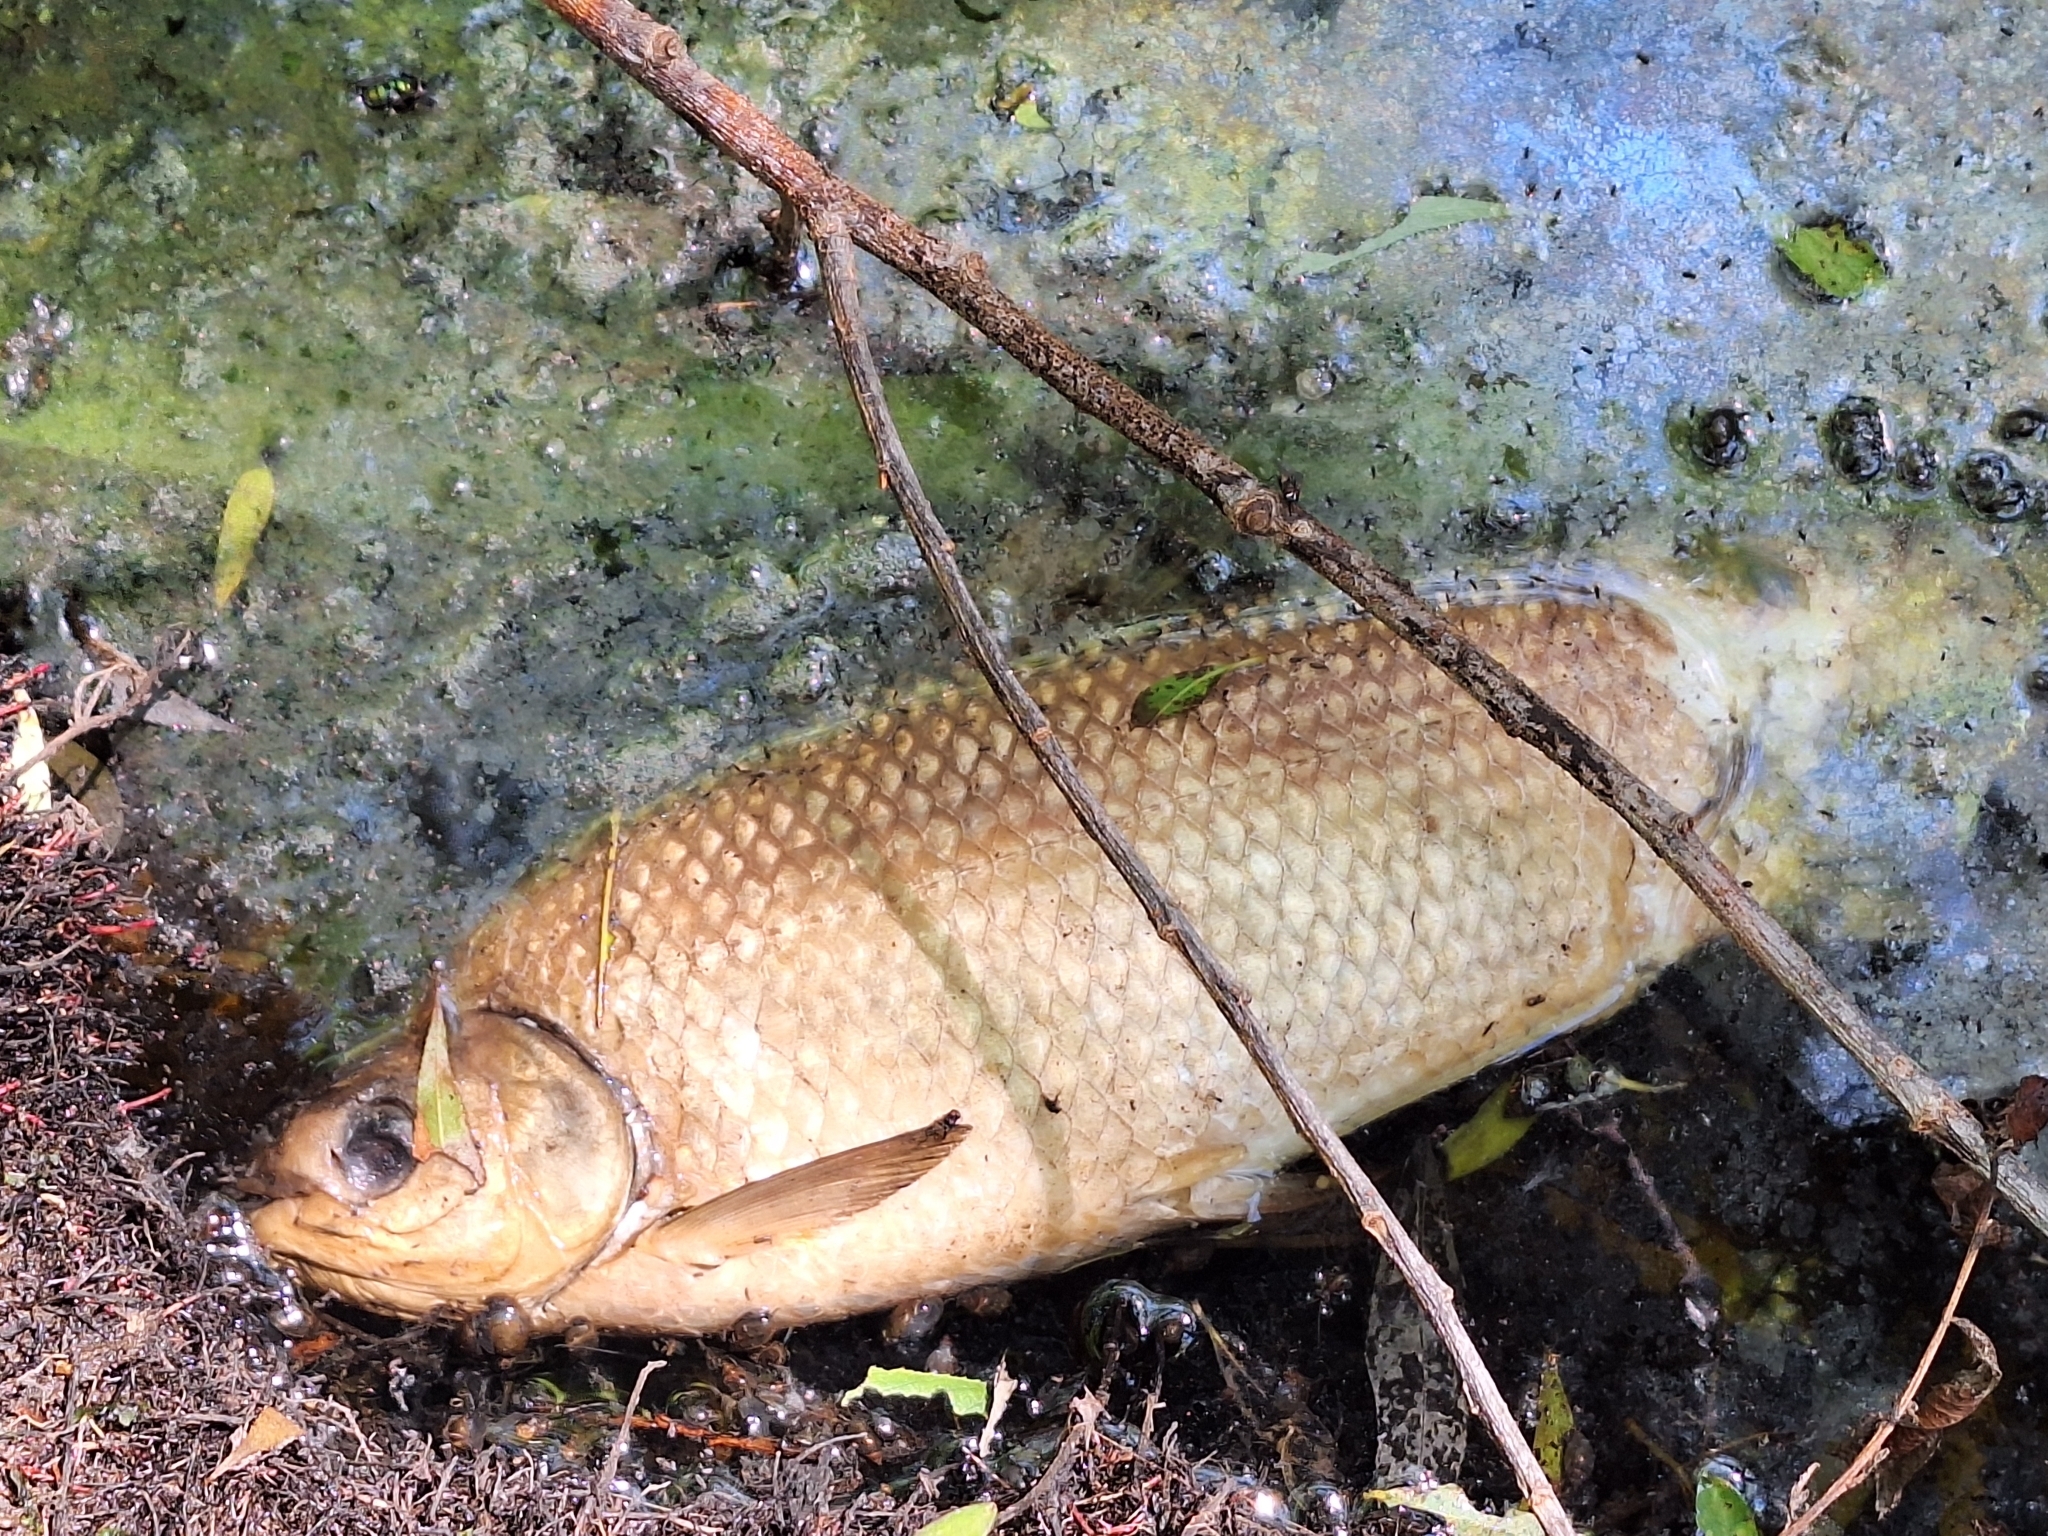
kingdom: Animalia
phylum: Chordata
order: Characiformes
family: Prochilodontidae
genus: Prochilodus
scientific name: Prochilodus lineatus
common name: Curimbata
